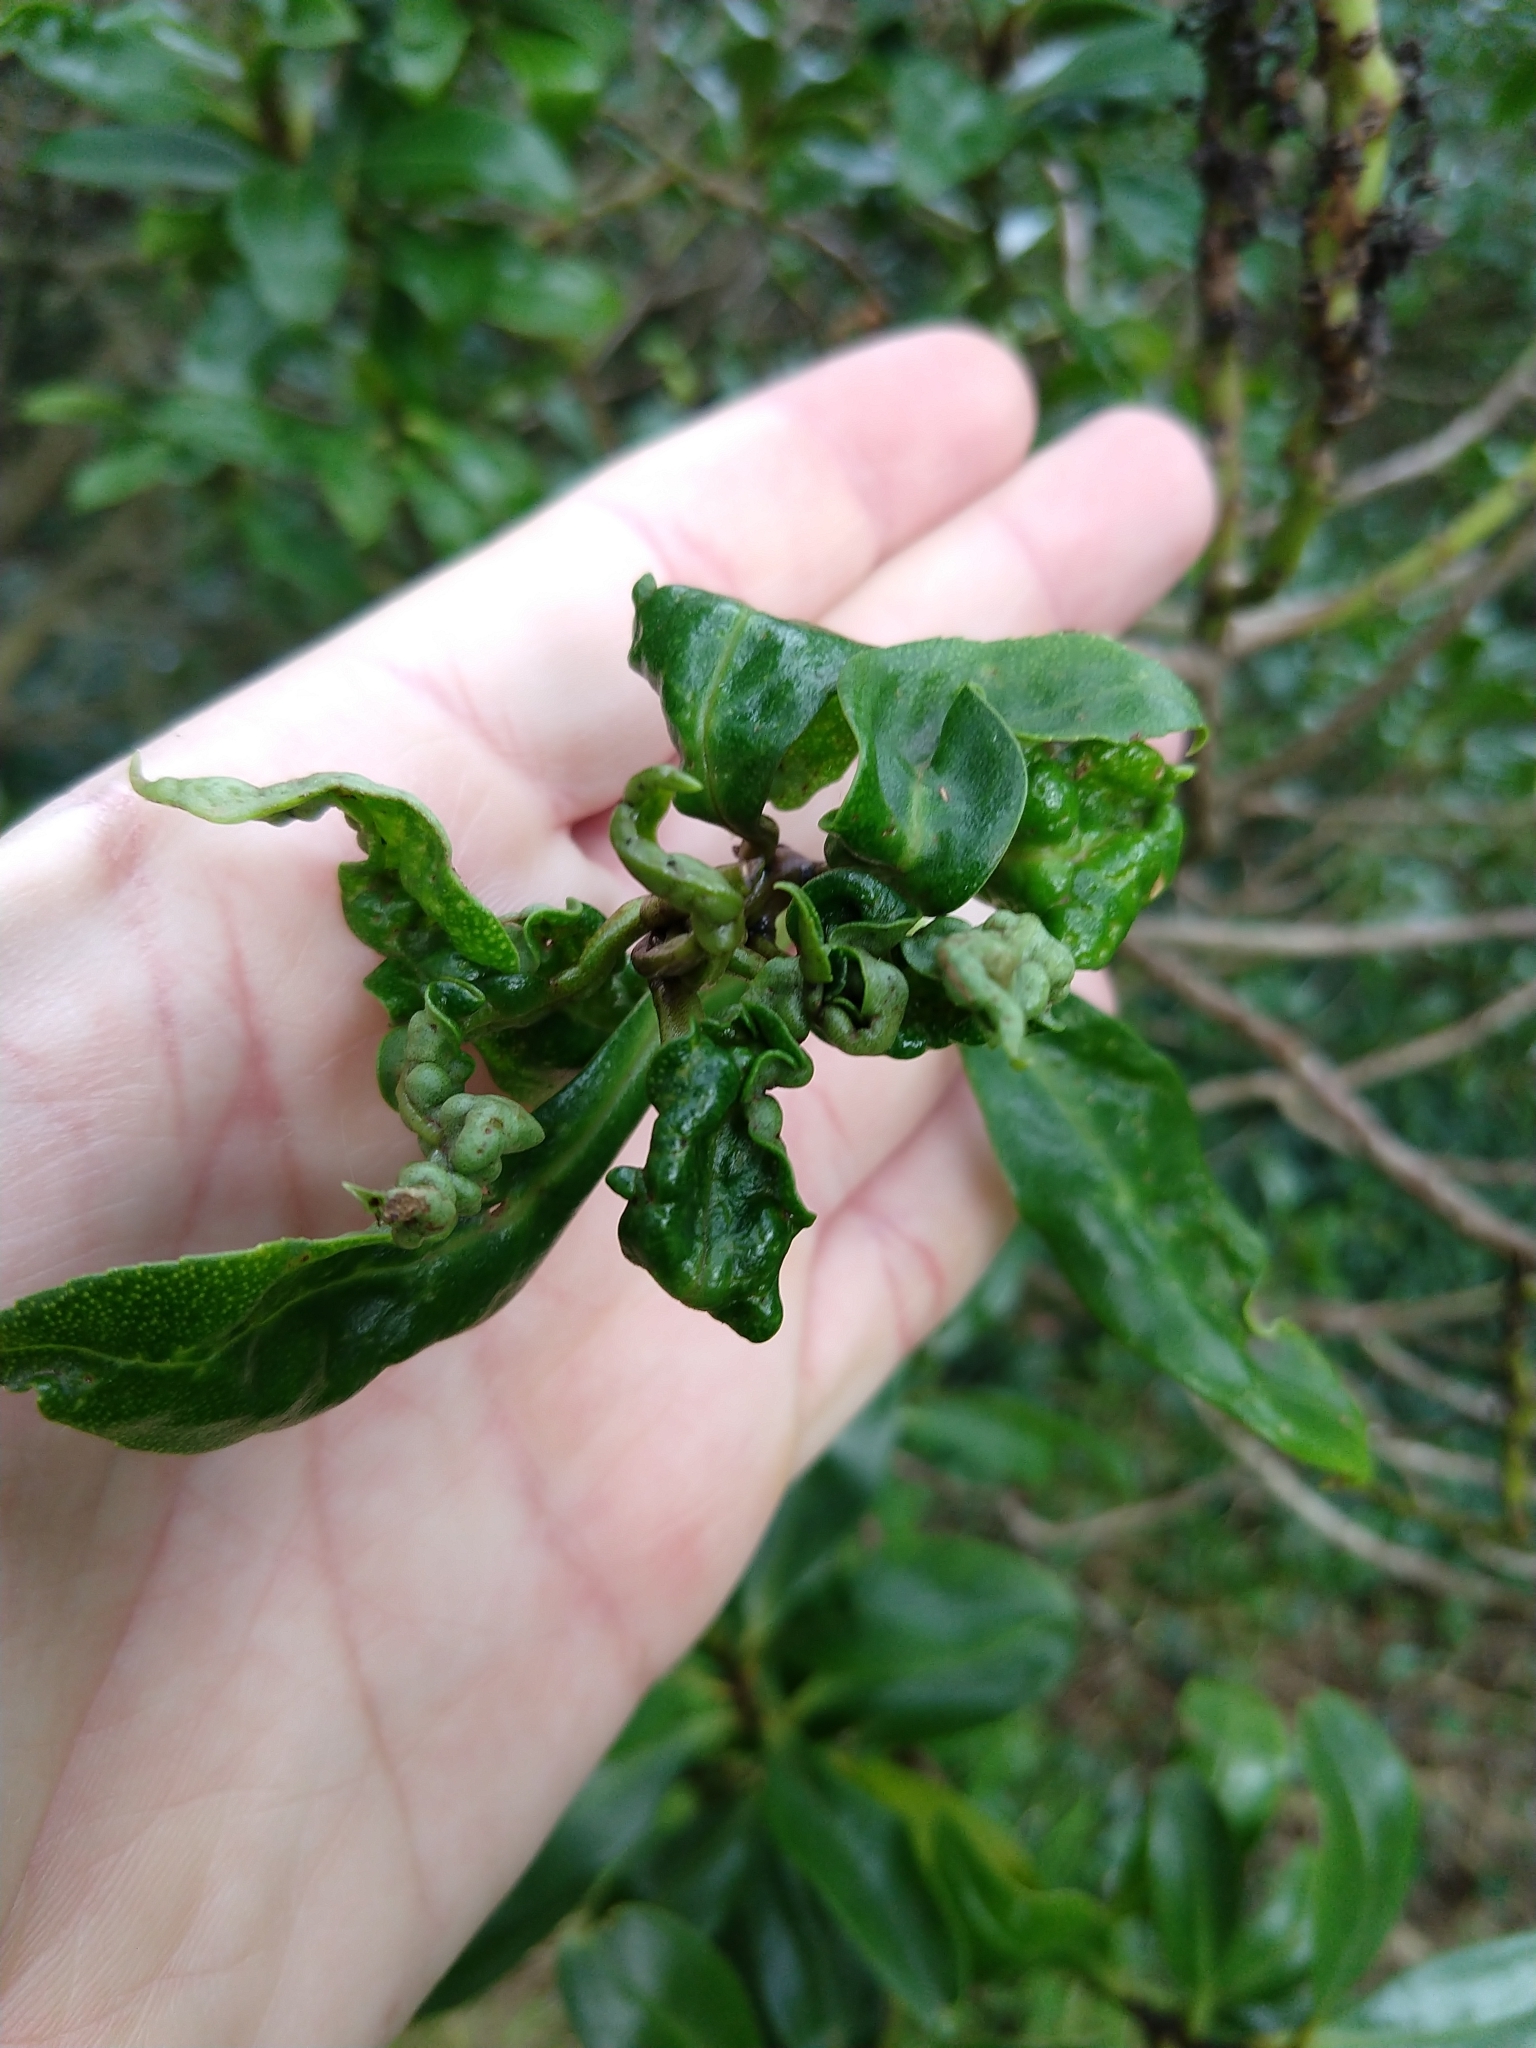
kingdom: Animalia
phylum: Arthropoda
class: Insecta
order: Thysanoptera
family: Phlaeothripidae
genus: Klambothrips
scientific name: Klambothrips myopori
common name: Myoporum thrips
